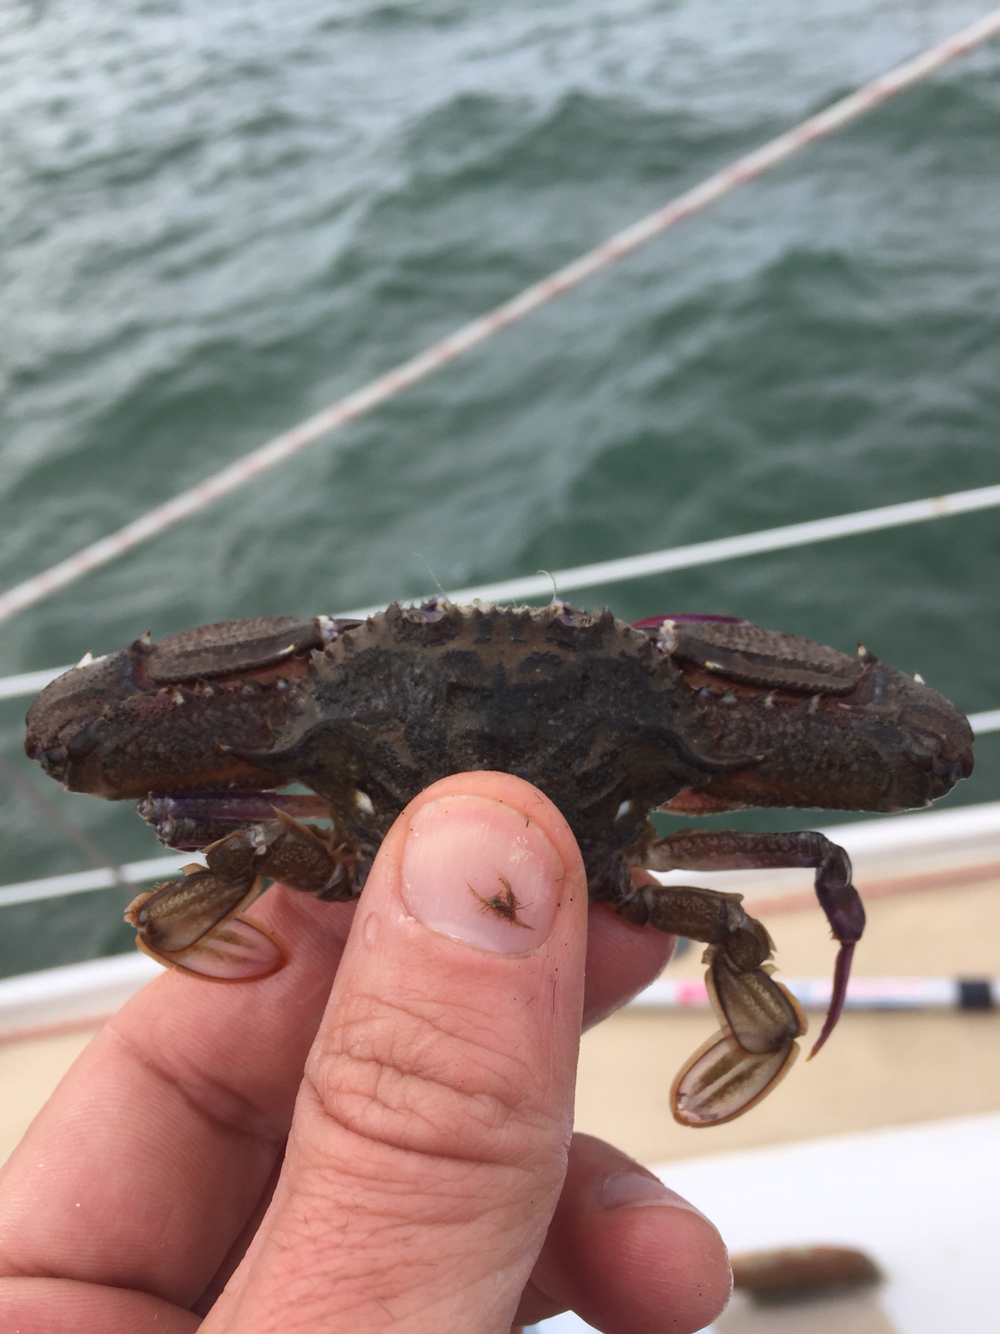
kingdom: Animalia
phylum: Arthropoda
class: Malacostraca
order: Decapoda
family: Portunidae
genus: Achelous
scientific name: Achelous xantusii
